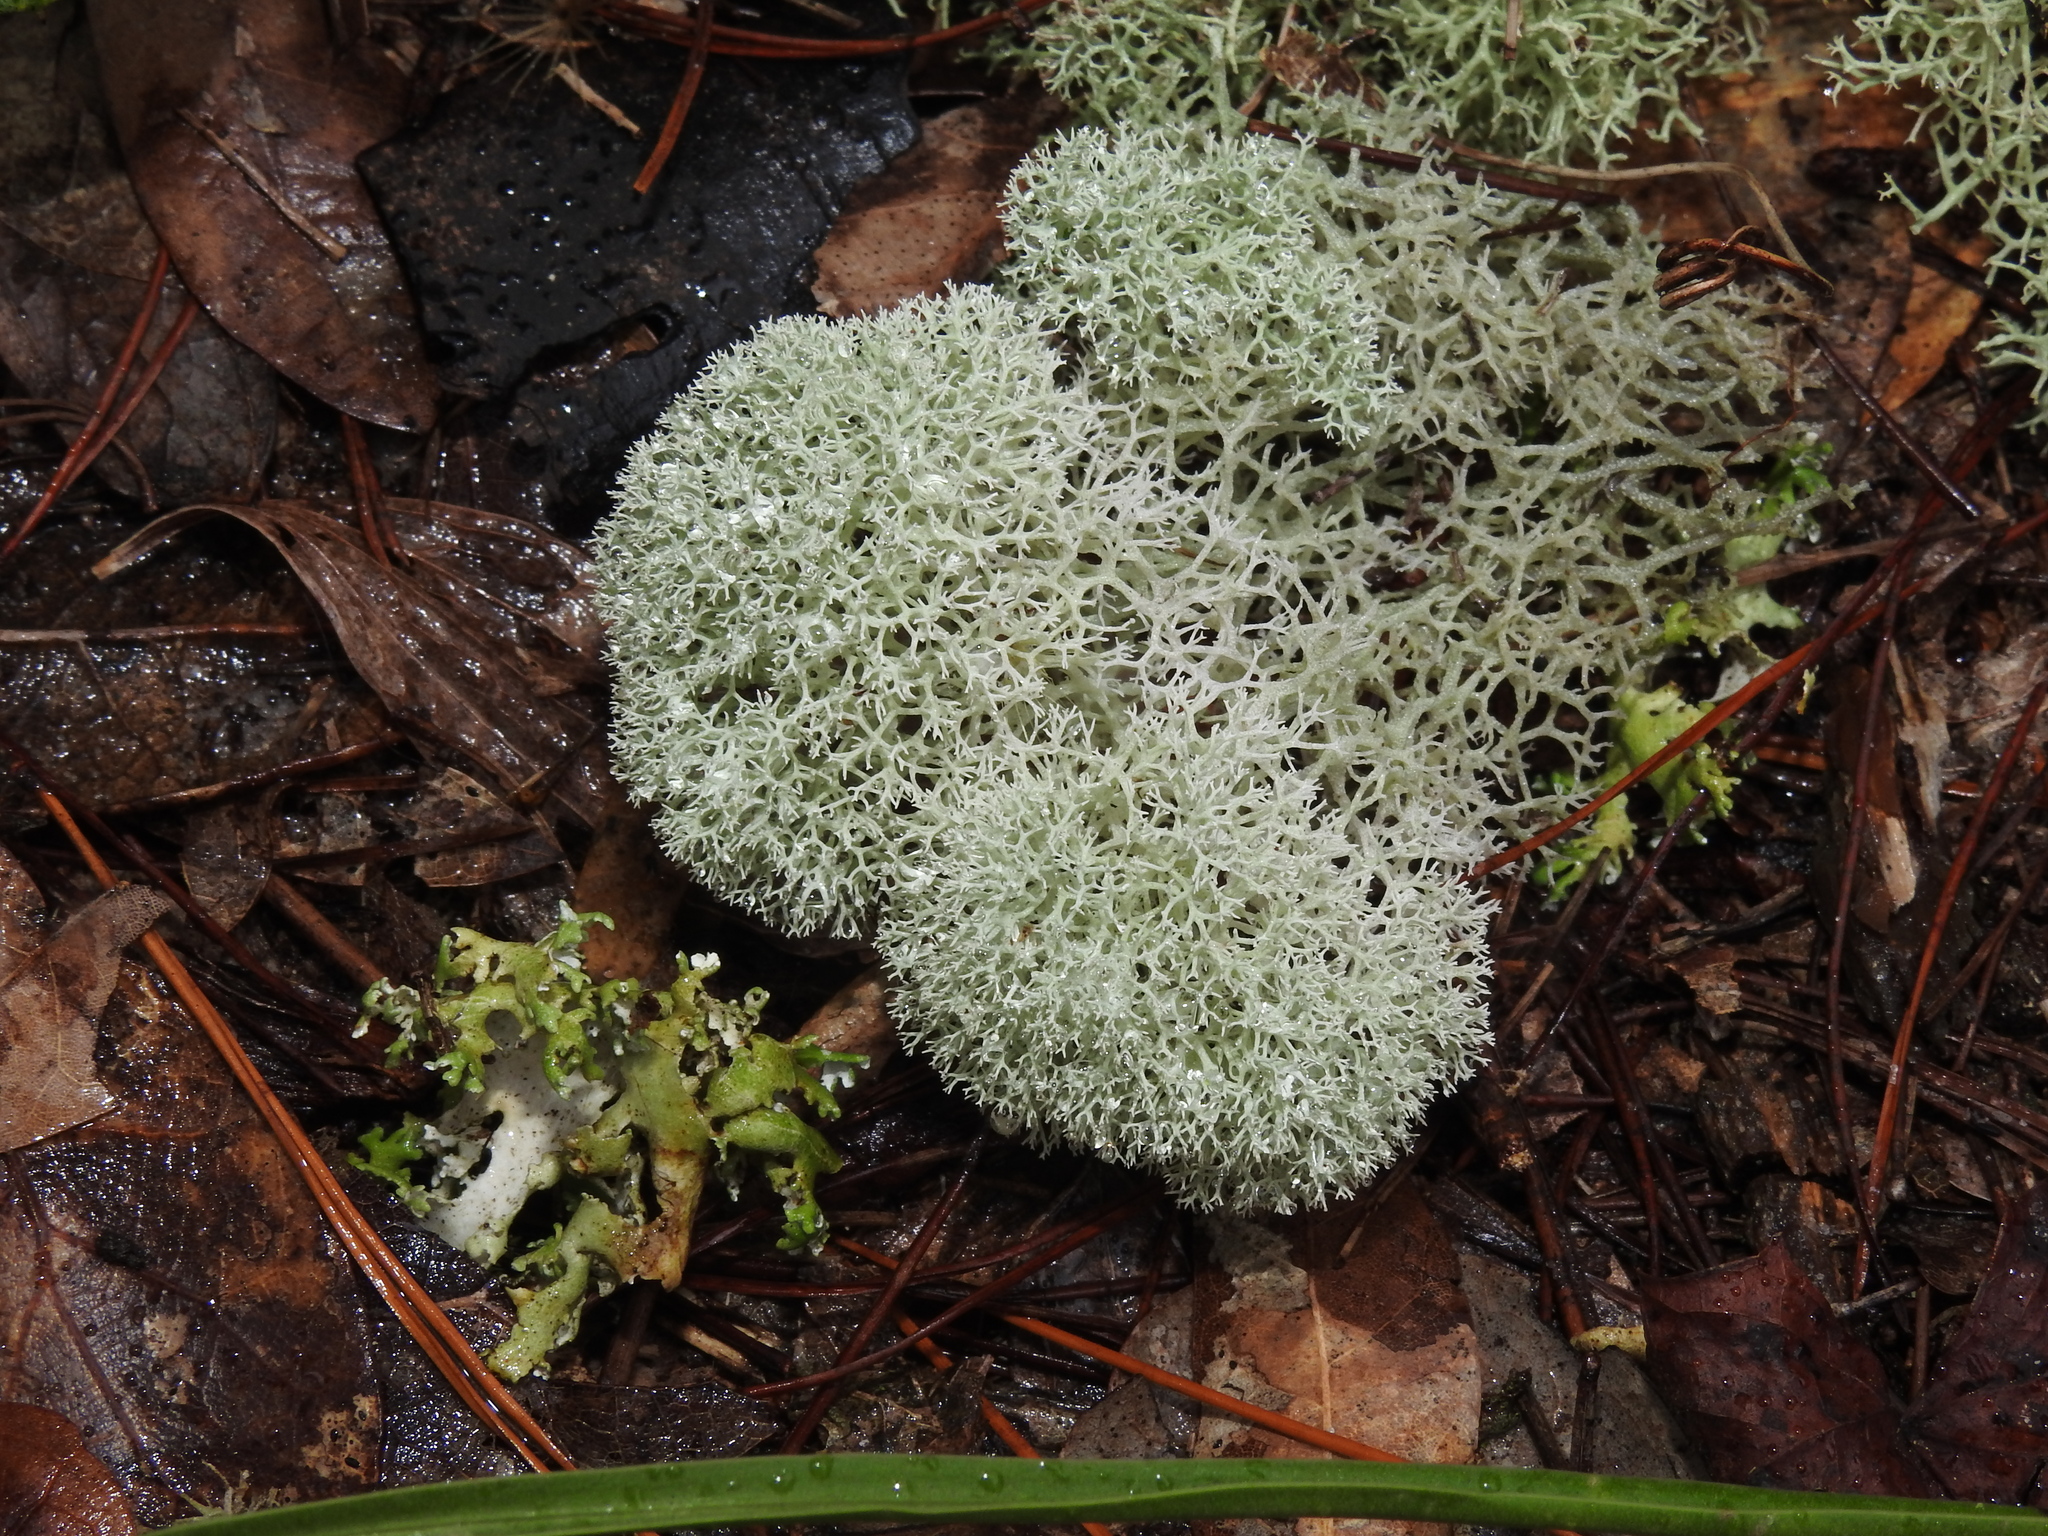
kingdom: Fungi
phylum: Ascomycota
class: Lecanoromycetes
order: Lecanorales
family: Cladoniaceae
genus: Cladonia
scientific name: Cladonia evansii
